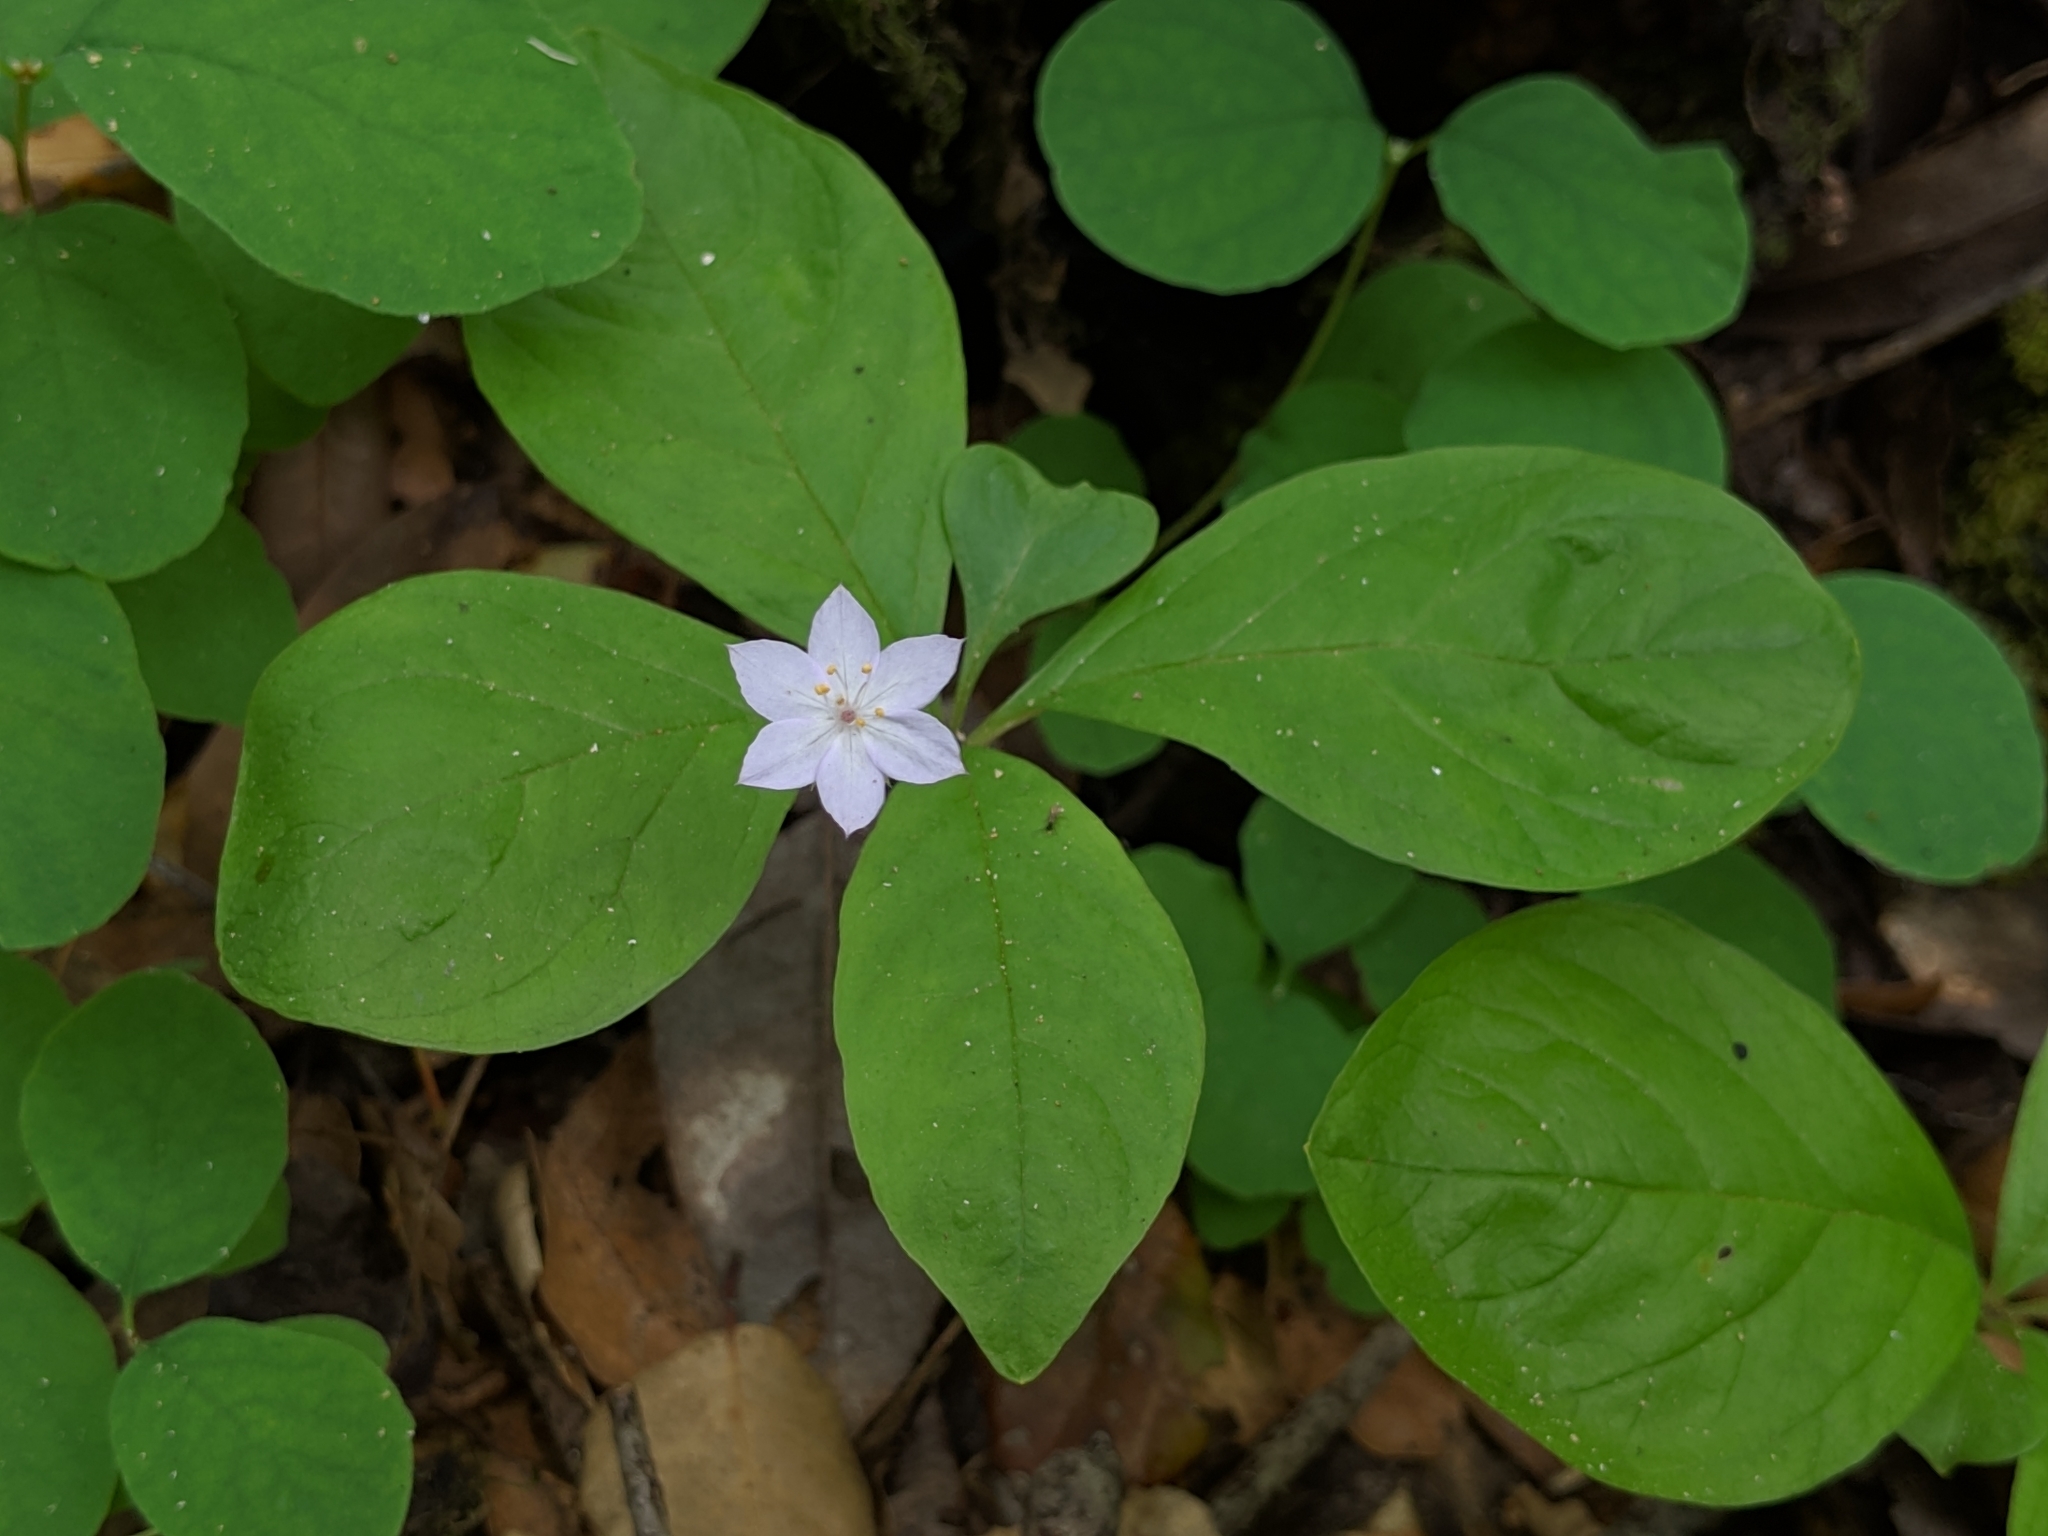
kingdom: Plantae
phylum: Tracheophyta
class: Magnoliopsida
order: Ericales
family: Primulaceae
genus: Lysimachia
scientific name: Lysimachia latifolia
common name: Pacific starflower
